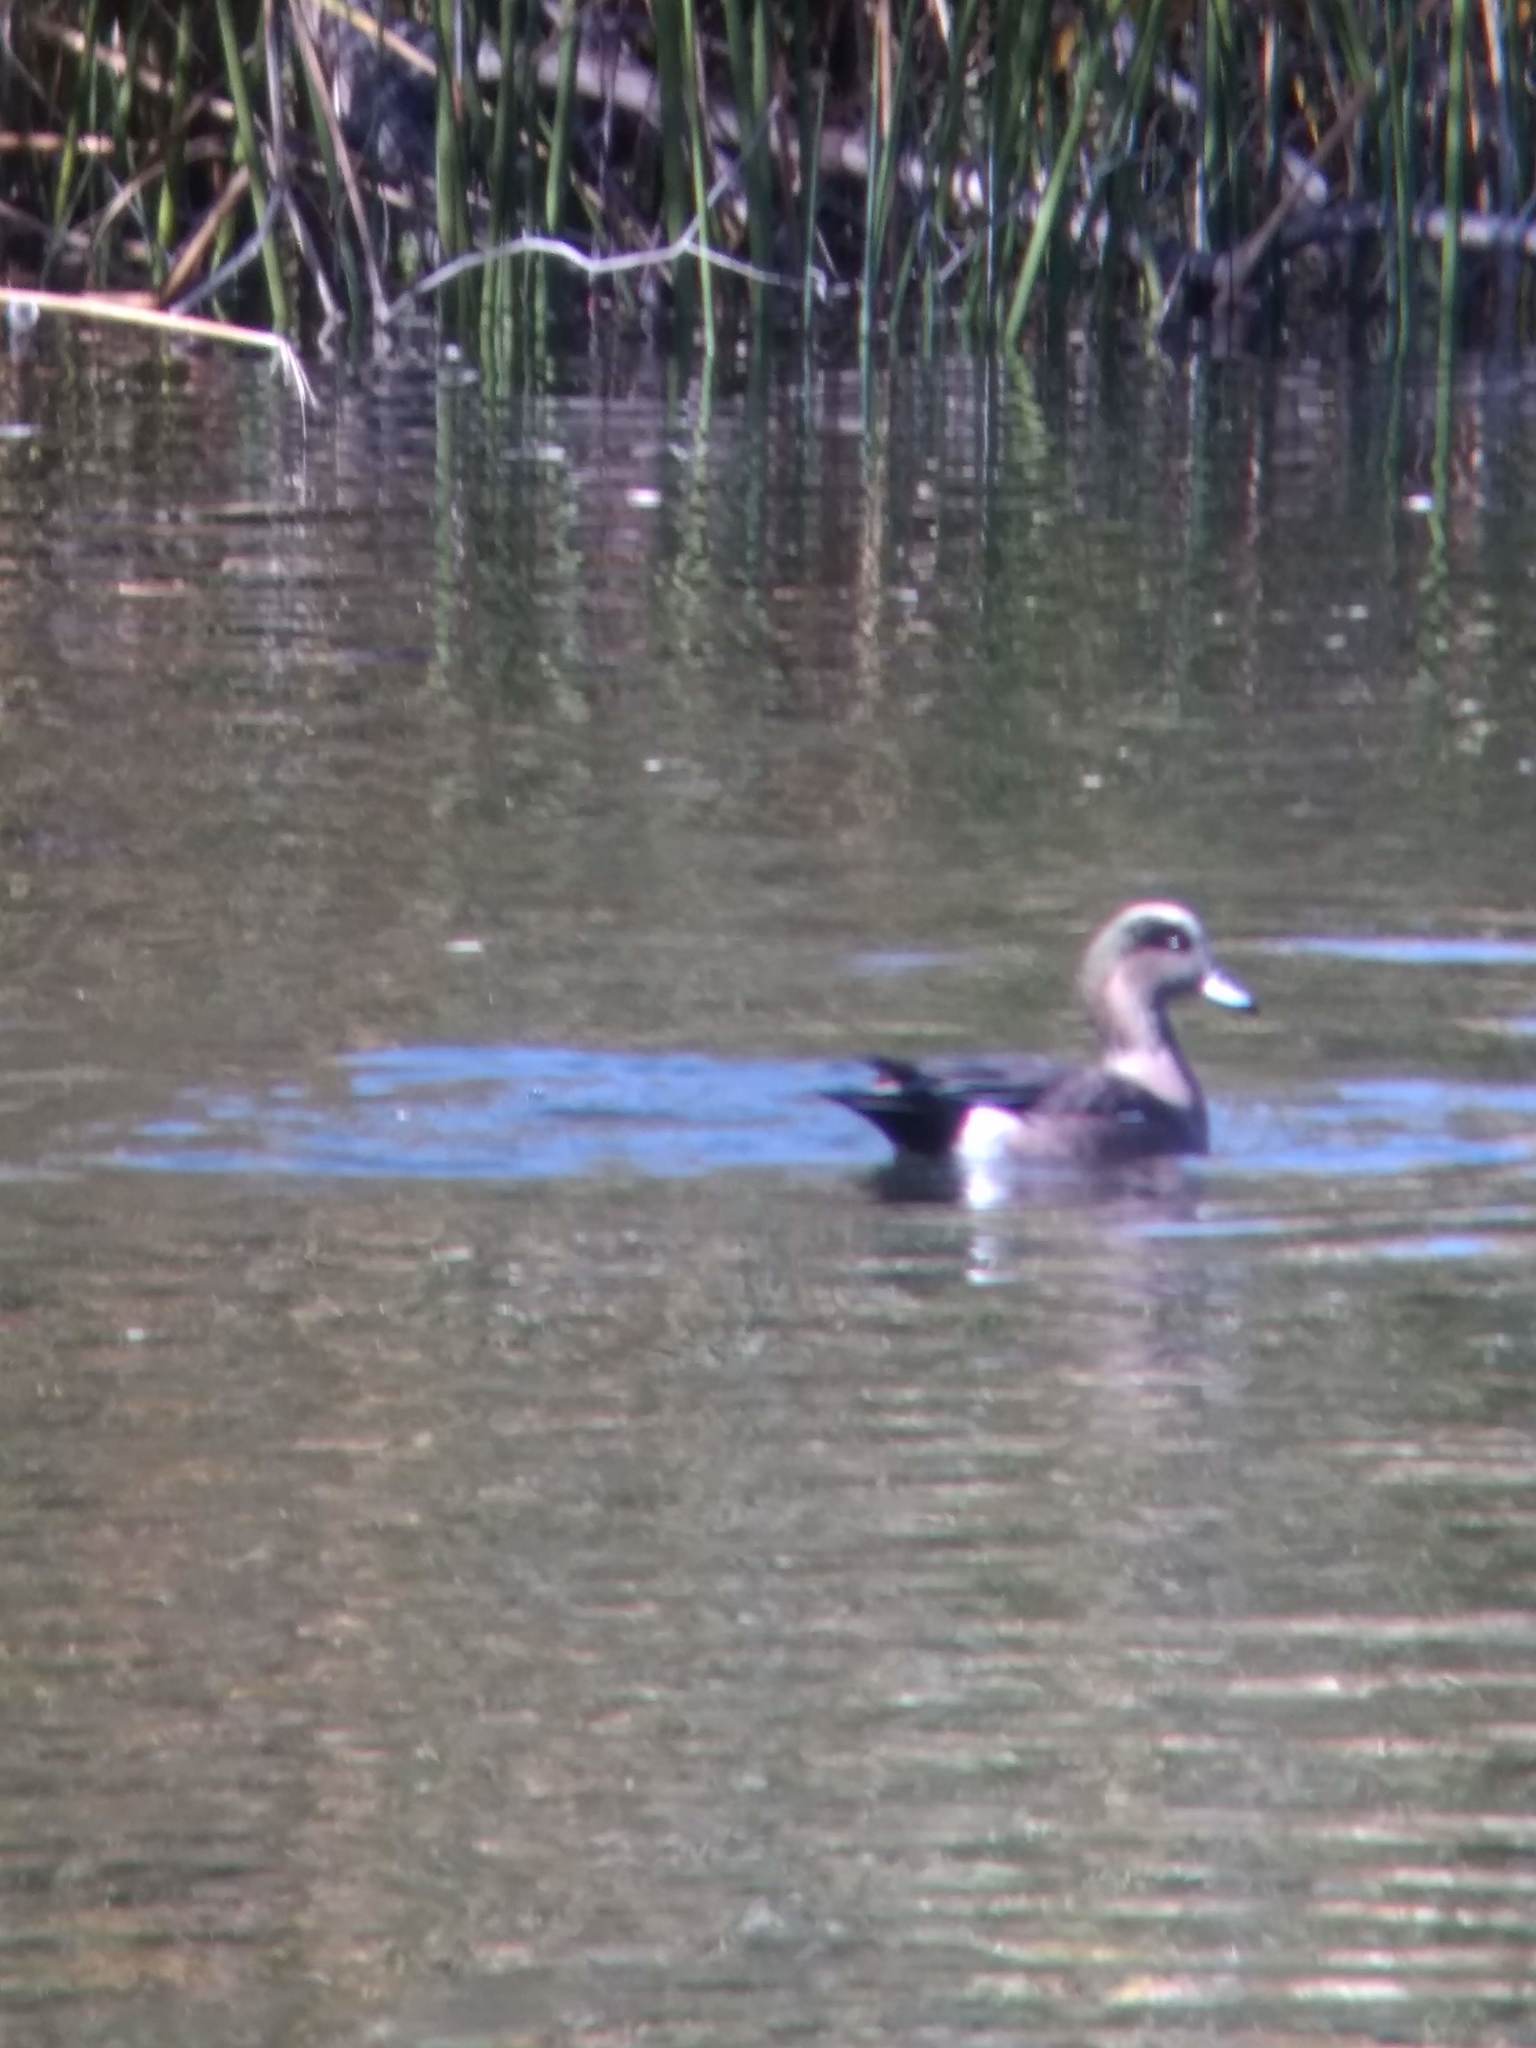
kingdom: Animalia
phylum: Chordata
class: Aves
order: Anseriformes
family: Anatidae
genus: Mareca
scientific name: Mareca americana
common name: American wigeon
